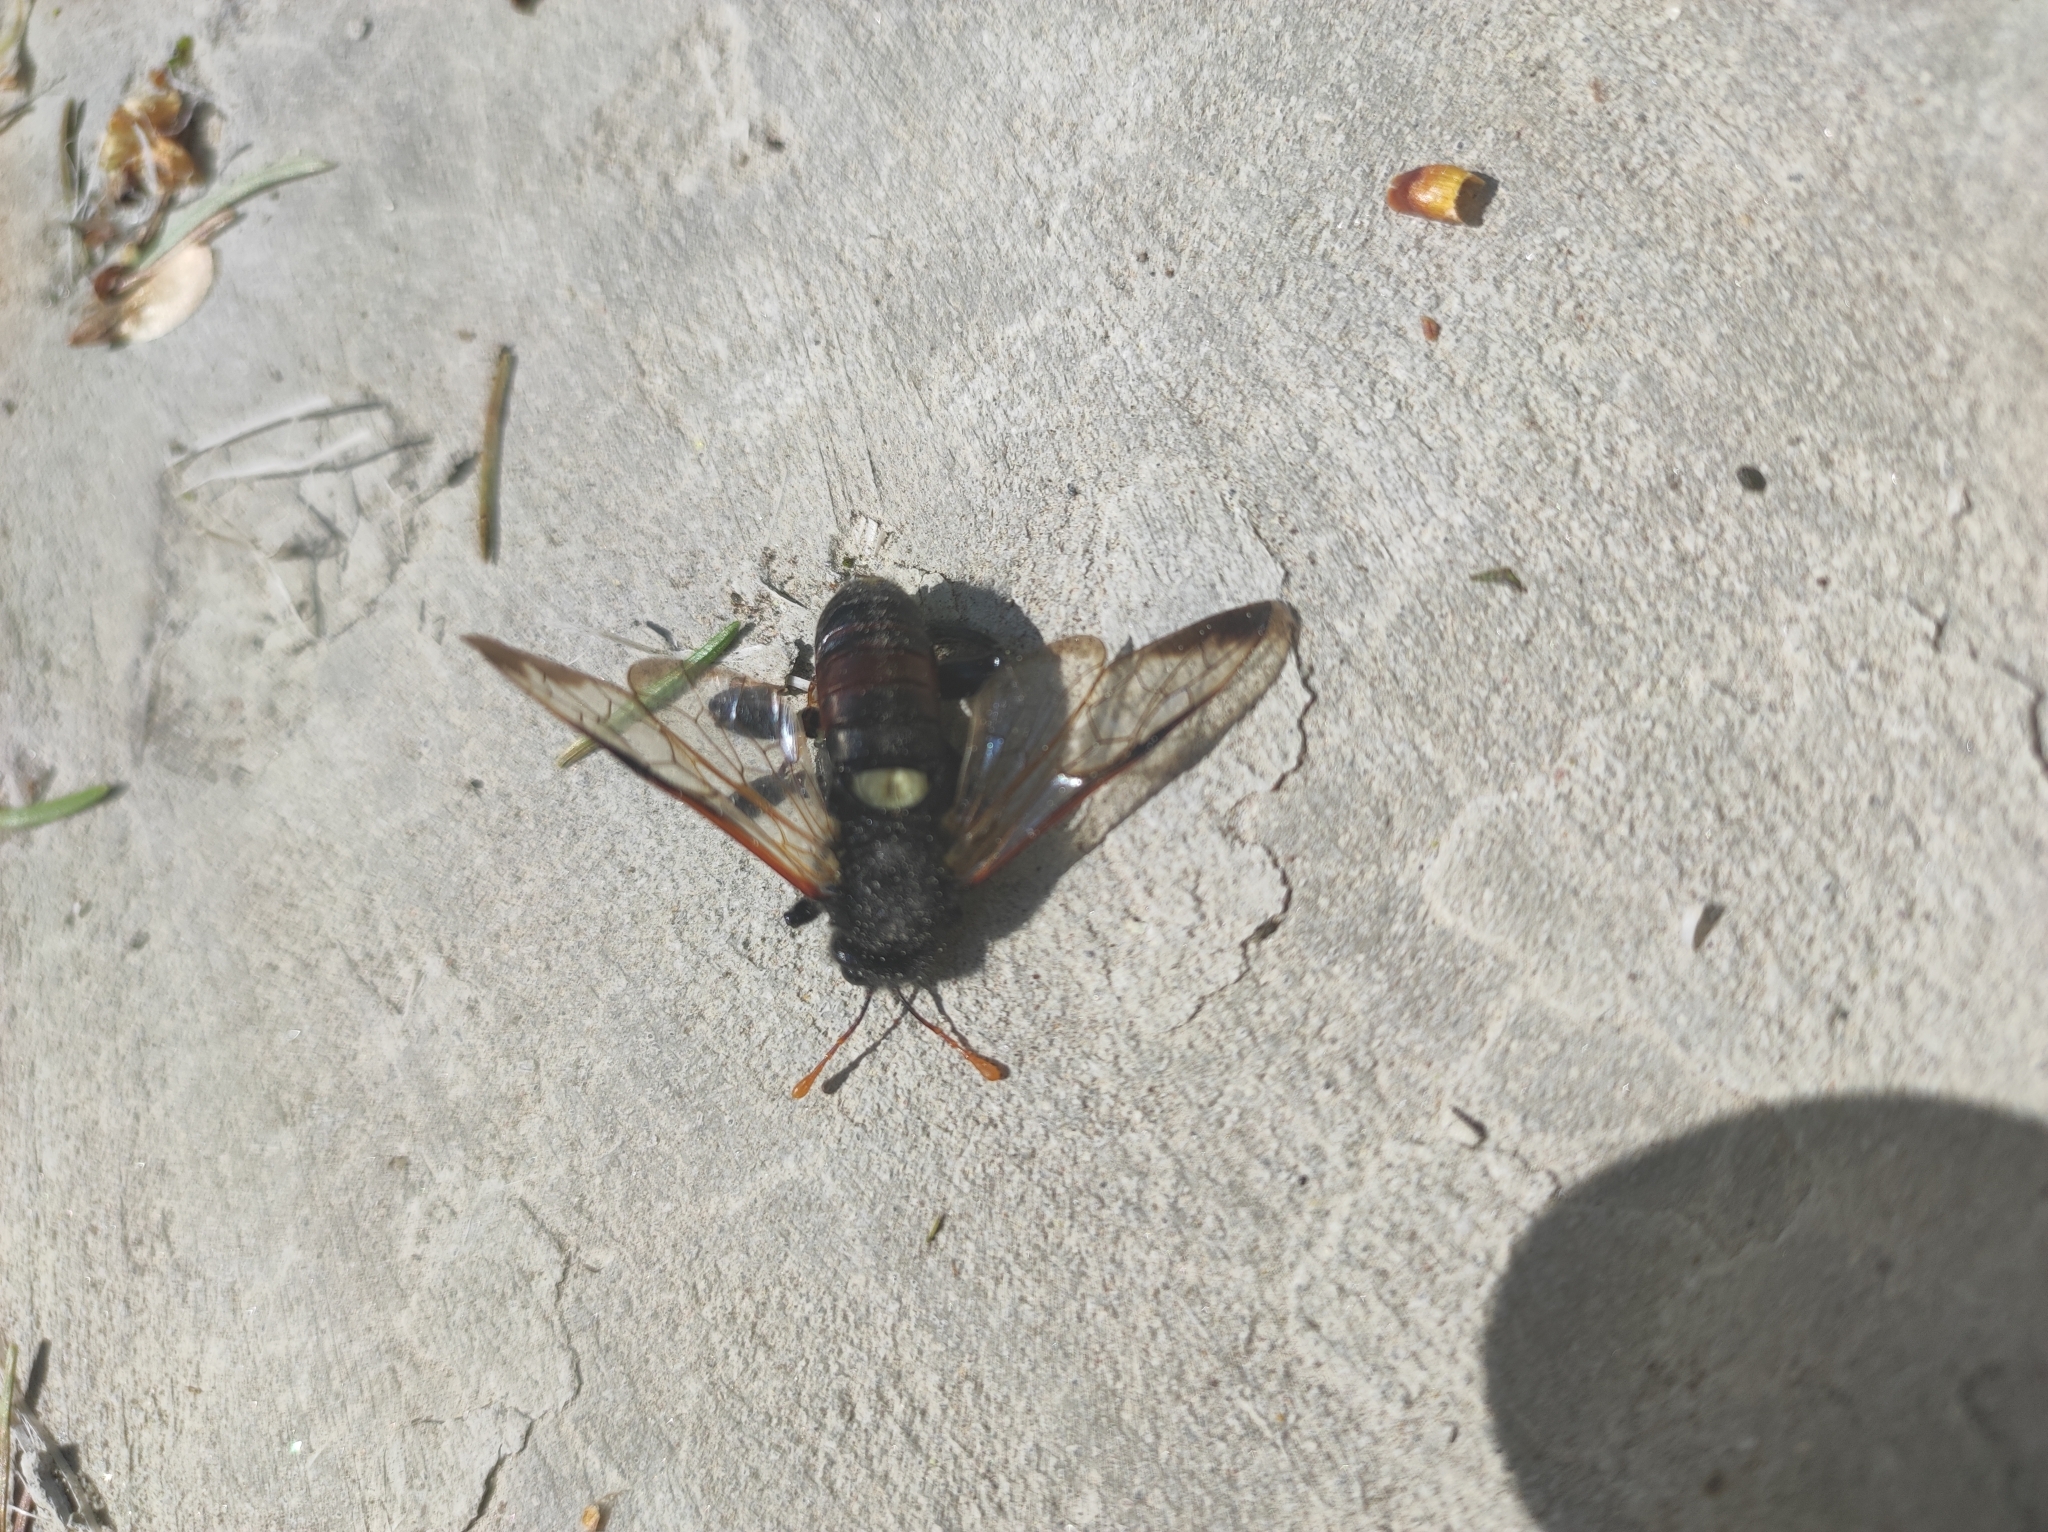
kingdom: Animalia
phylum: Arthropoda
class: Insecta
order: Hymenoptera
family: Cimbicidae
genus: Cimbex
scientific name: Cimbex femoratus
